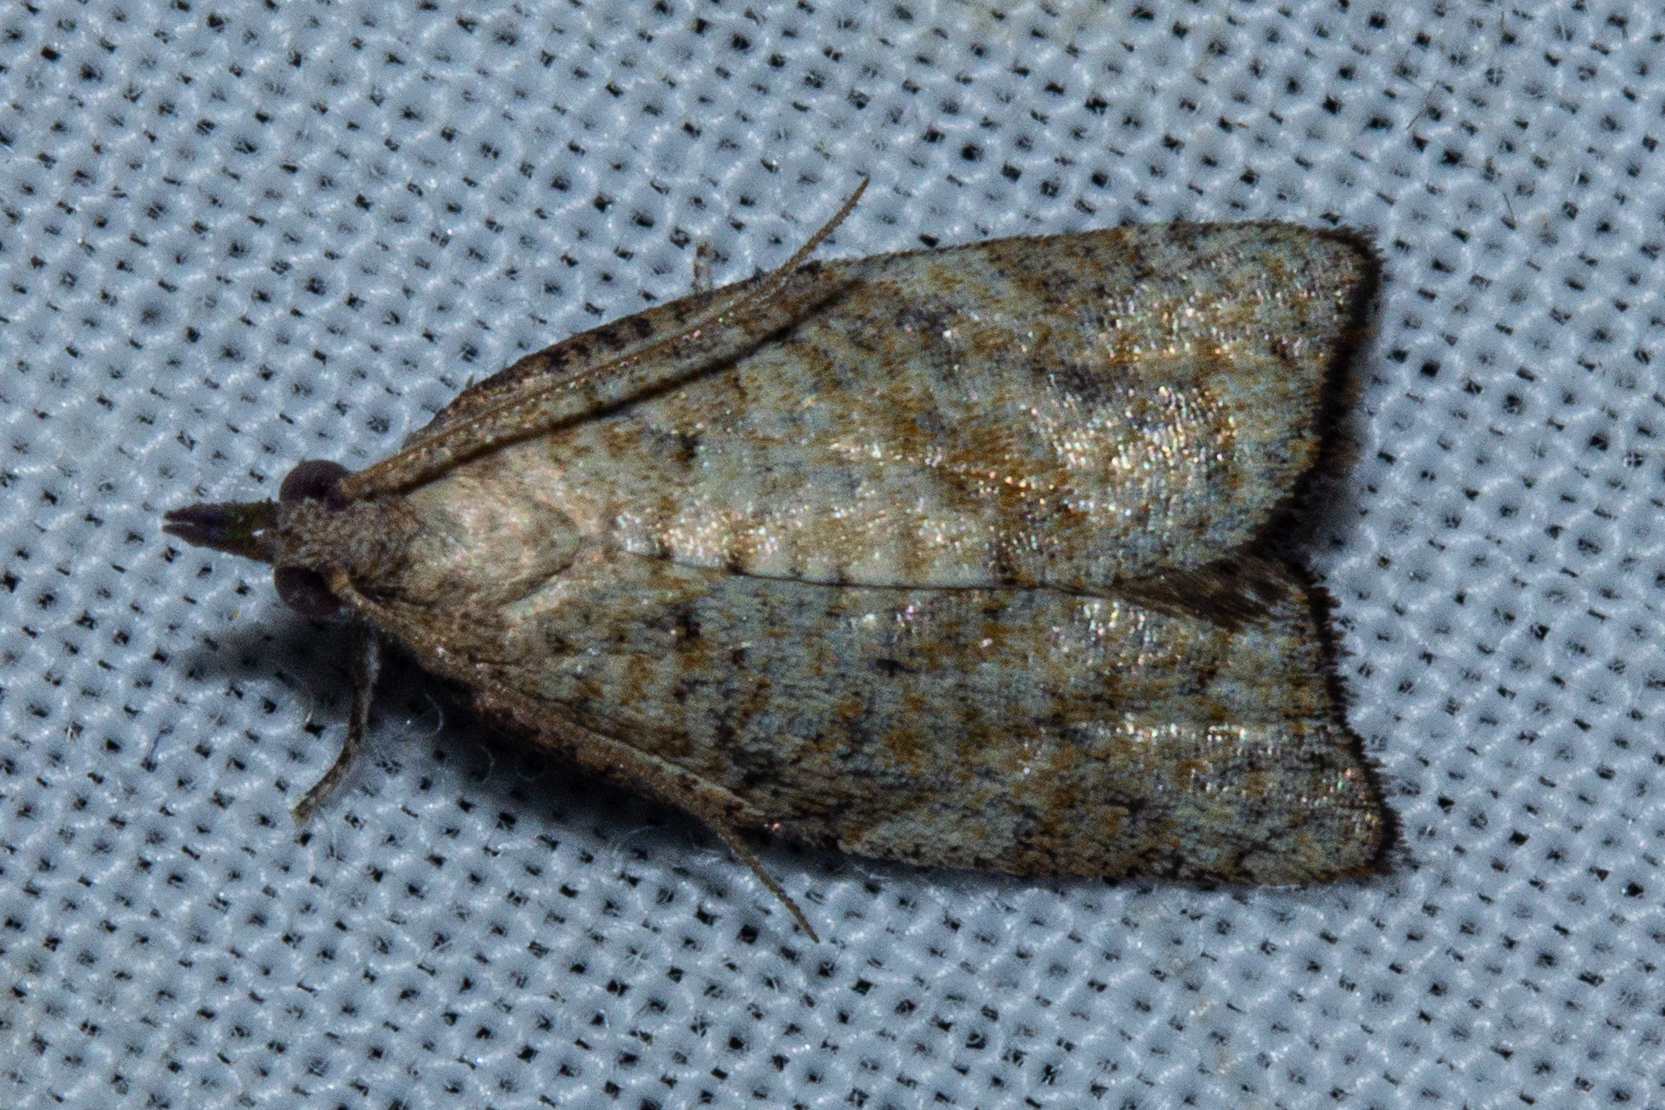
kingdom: Animalia
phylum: Arthropoda
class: Insecta
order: Lepidoptera
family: Tortricidae
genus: Apoctena
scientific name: Apoctena flavescens
